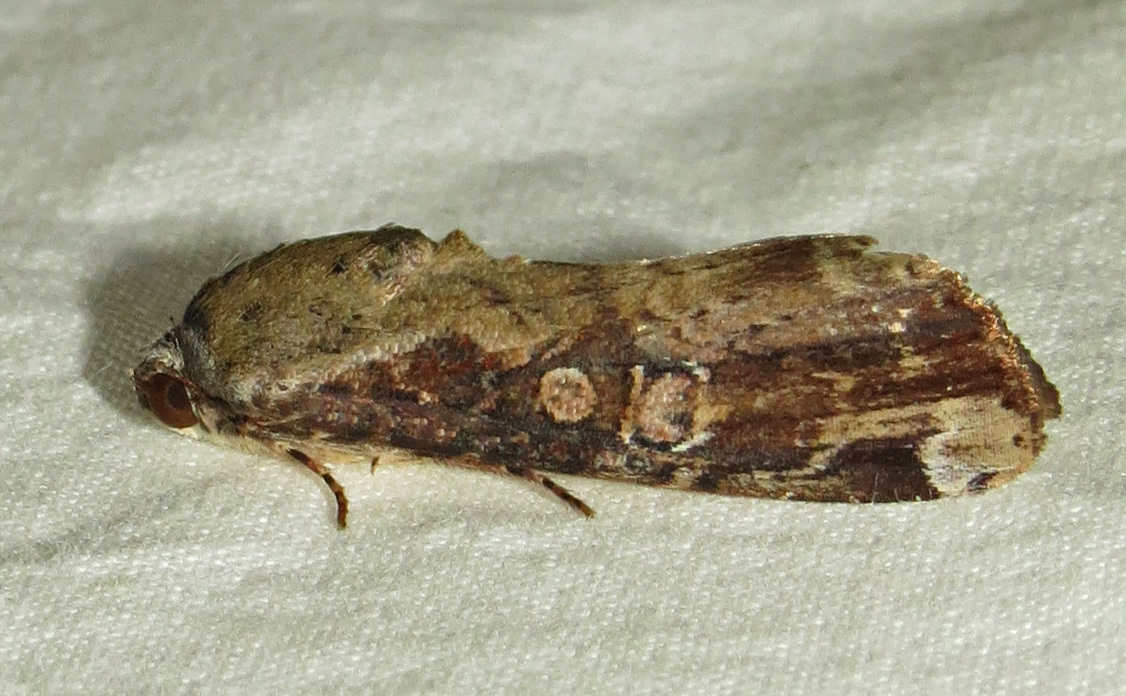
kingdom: Animalia
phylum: Arthropoda
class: Insecta
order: Lepidoptera
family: Noctuidae
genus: Magusa
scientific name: Magusa divaricata
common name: Orb narrow-winged moth
